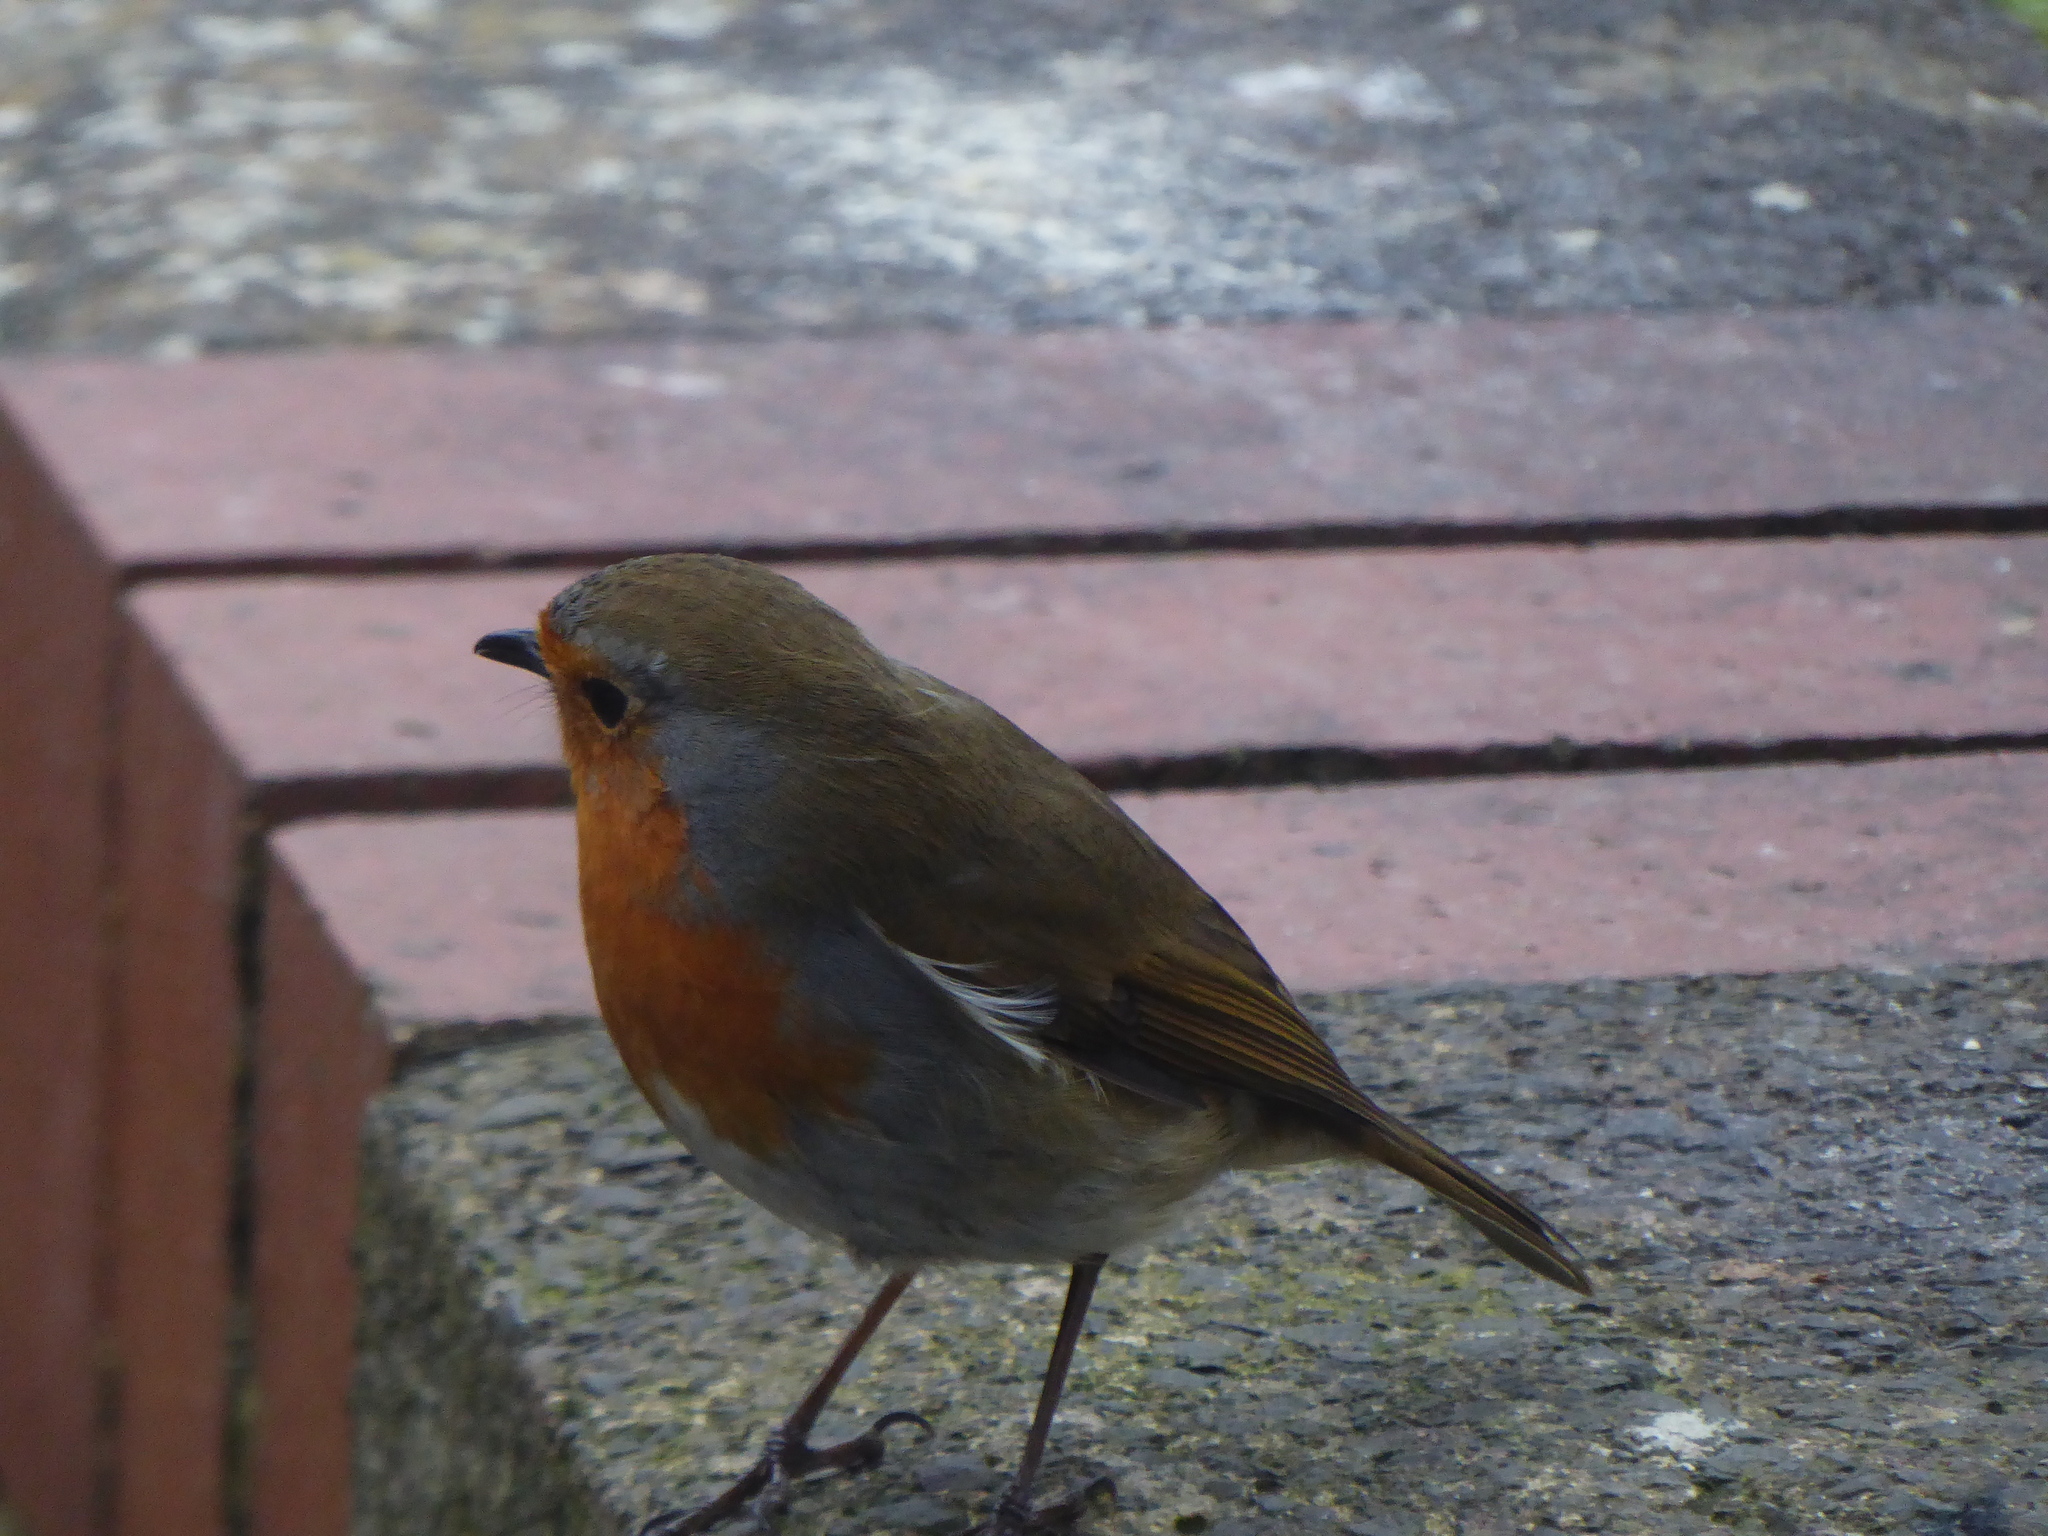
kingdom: Animalia
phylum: Chordata
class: Aves
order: Passeriformes
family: Muscicapidae
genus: Erithacus
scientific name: Erithacus rubecula
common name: European robin
